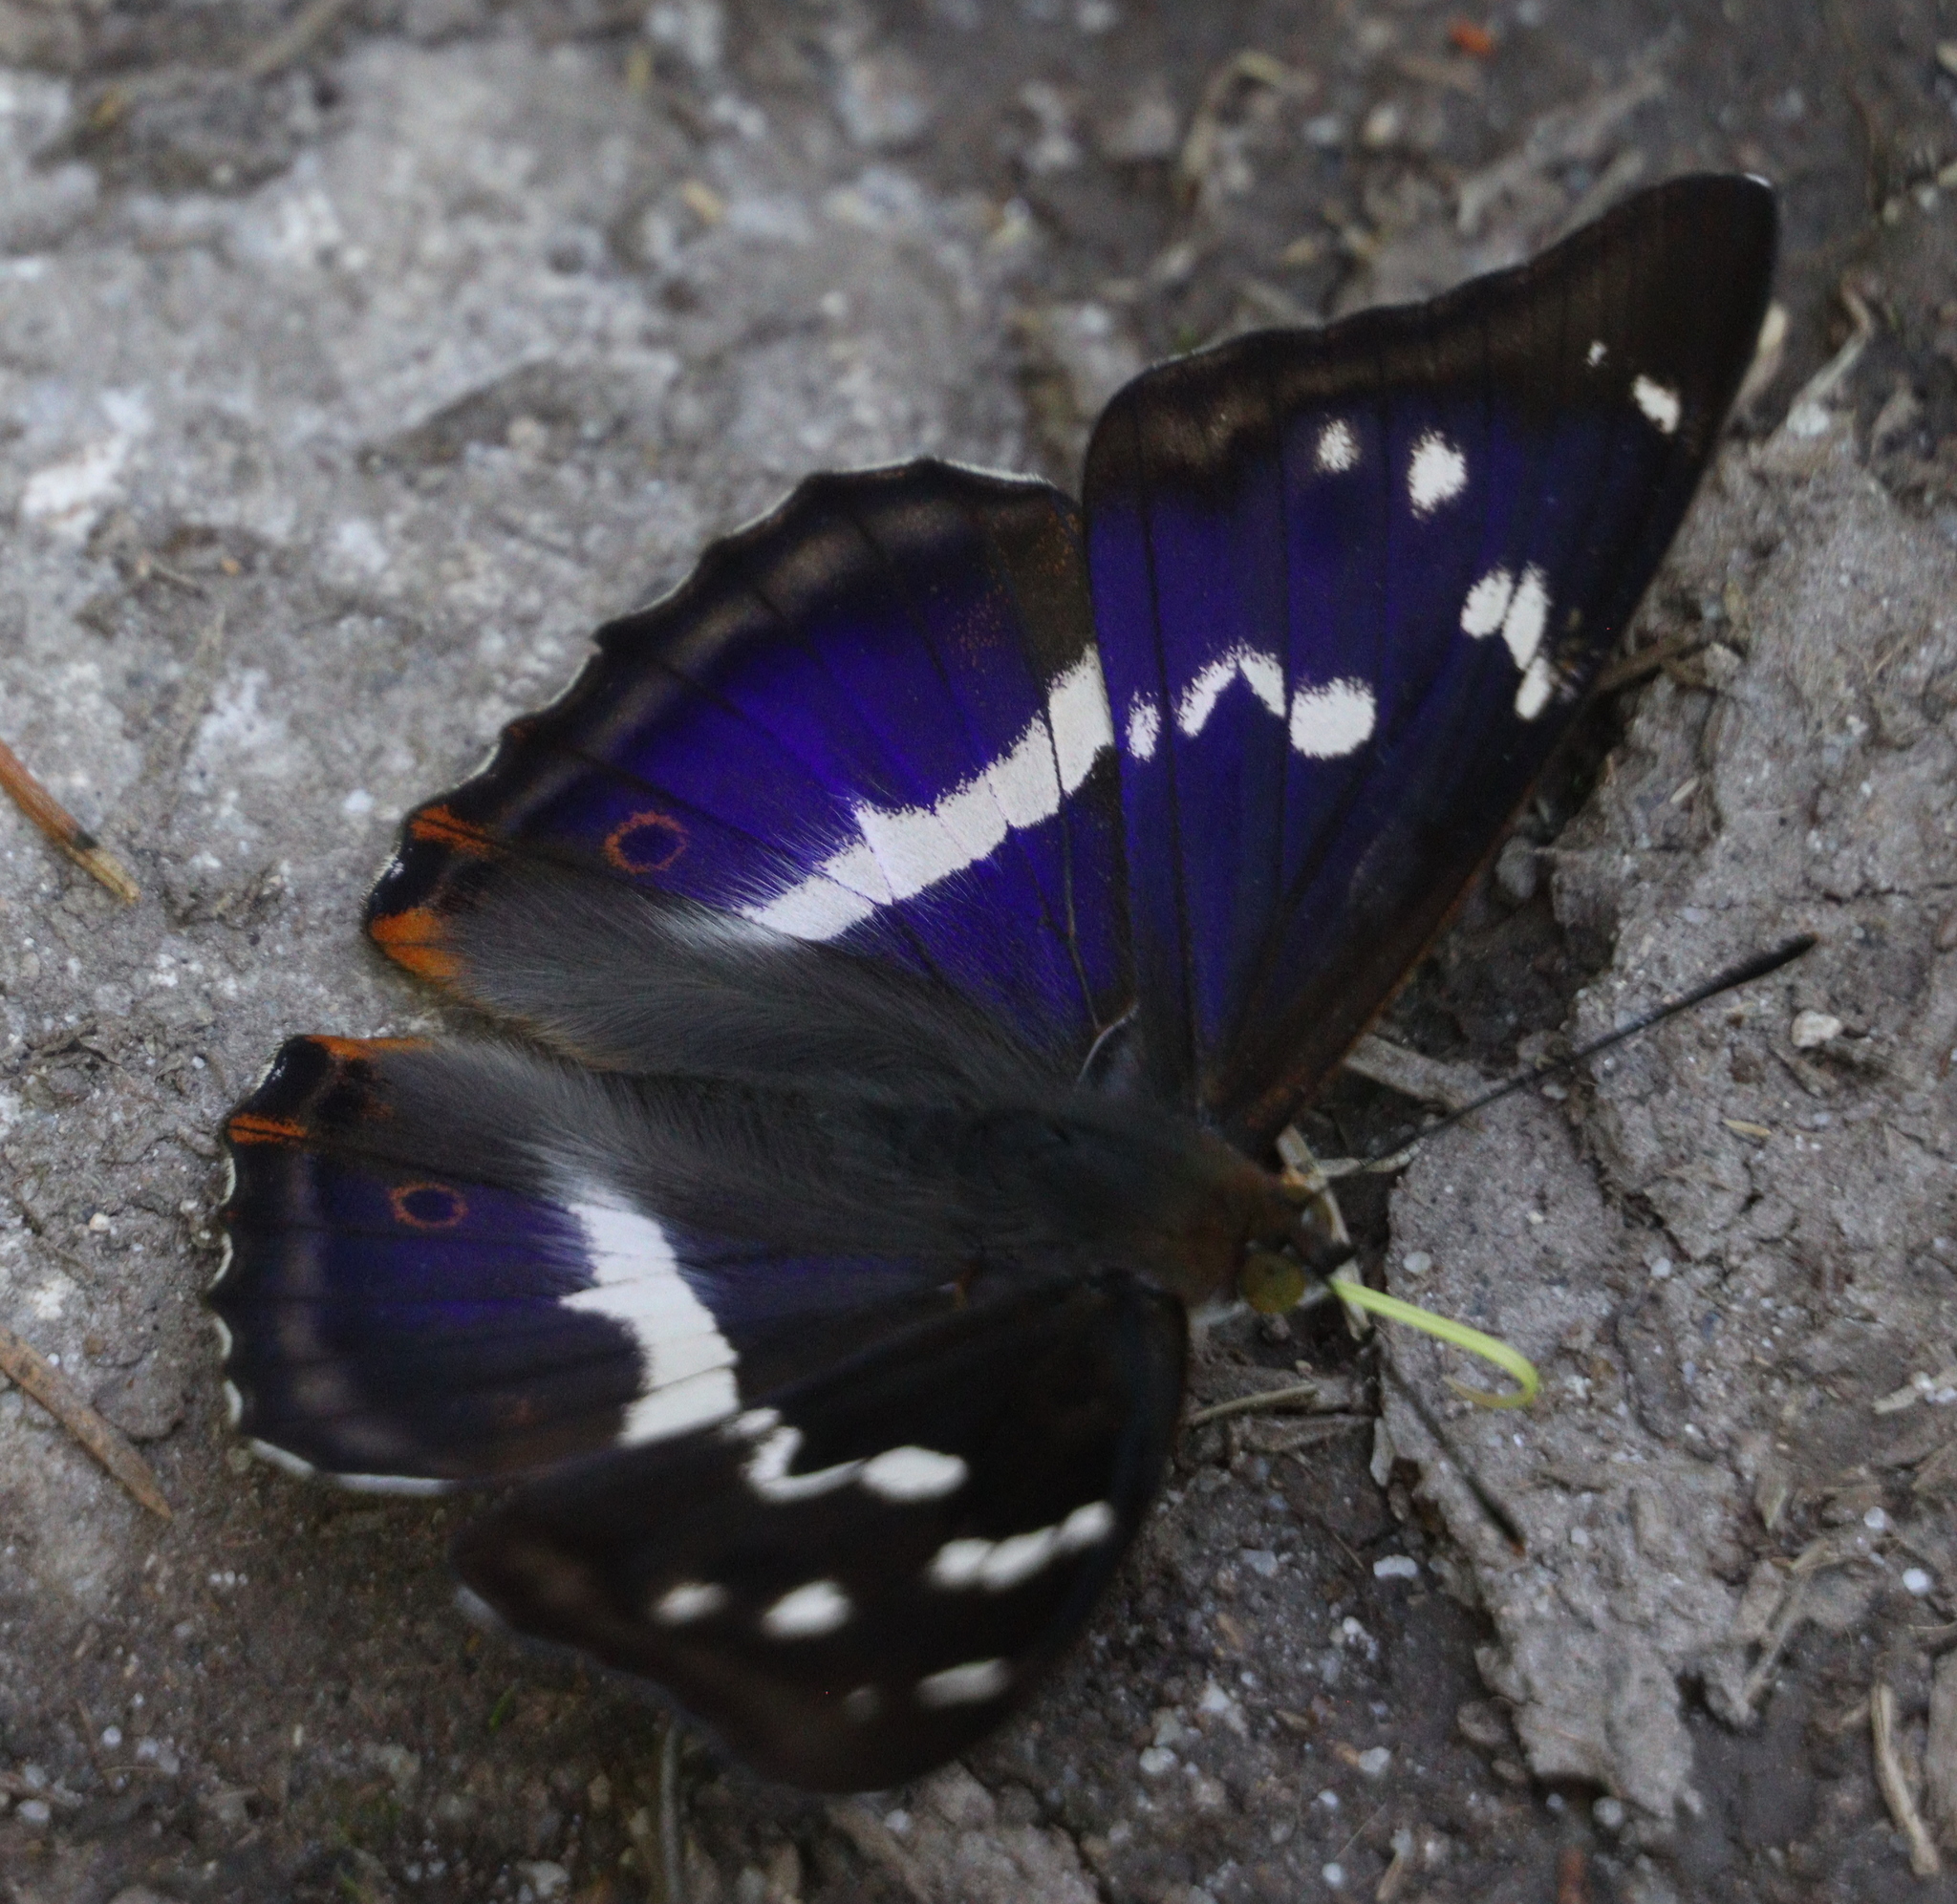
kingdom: Animalia
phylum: Arthropoda
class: Insecta
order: Lepidoptera
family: Nymphalidae
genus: Apatura
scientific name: Apatura iris
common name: Purple emperor
